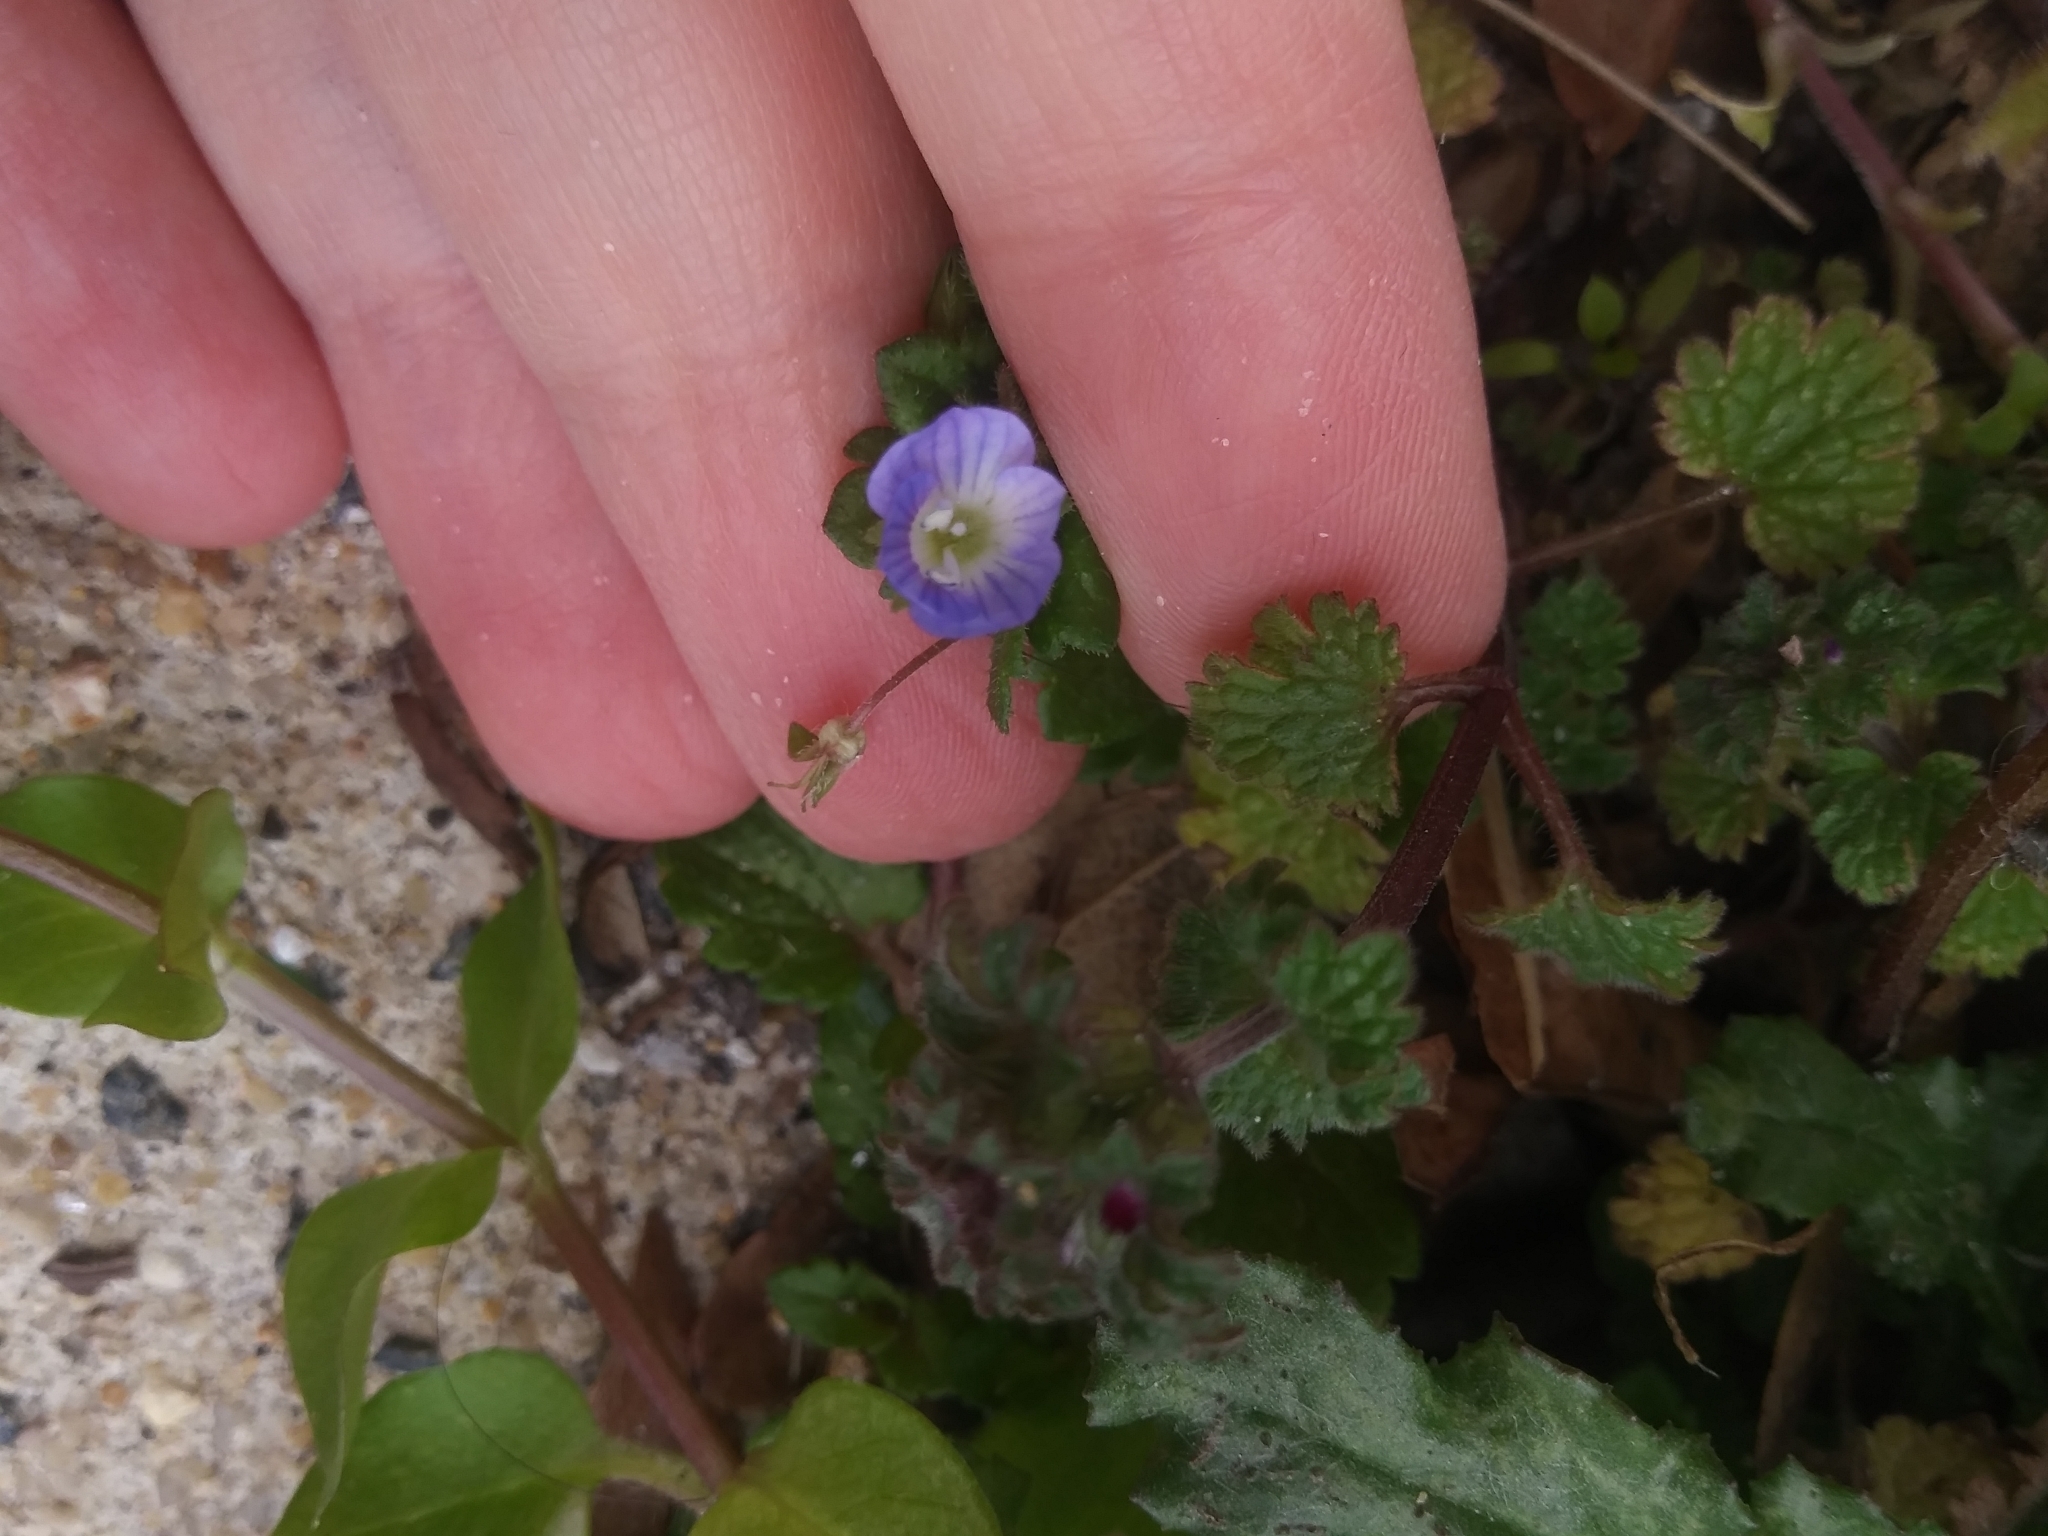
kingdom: Plantae
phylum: Tracheophyta
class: Magnoliopsida
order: Lamiales
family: Plantaginaceae
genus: Veronica
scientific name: Veronica persica
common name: Common field-speedwell
